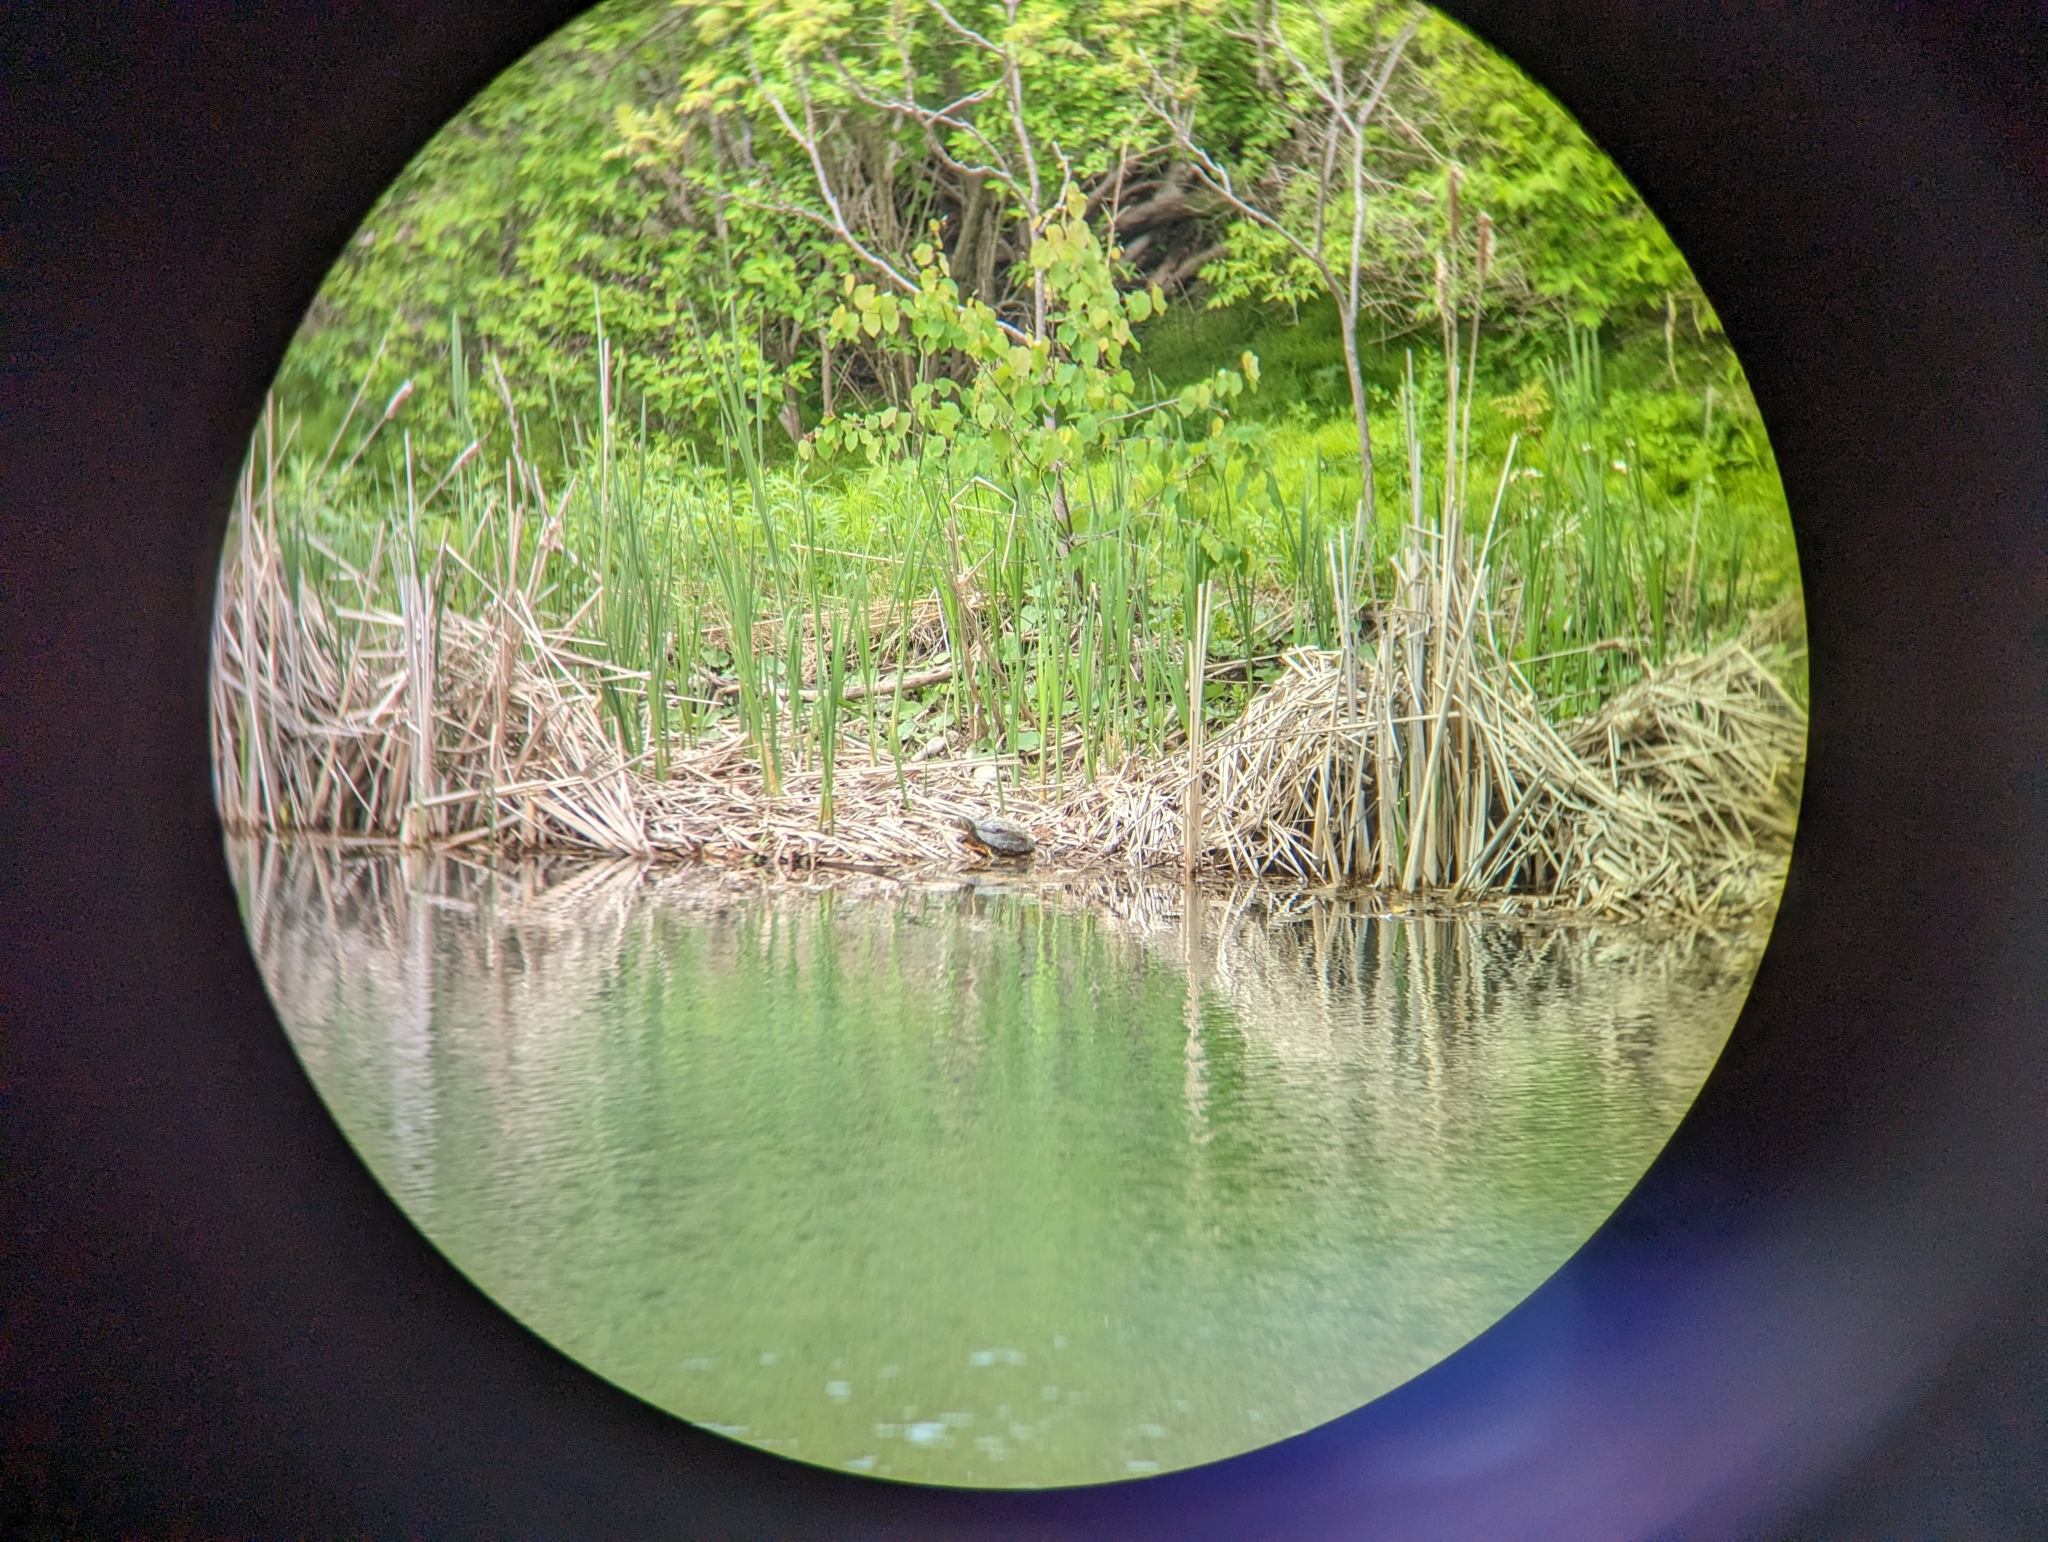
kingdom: Animalia
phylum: Chordata
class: Testudines
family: Emydidae
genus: Trachemys
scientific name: Trachemys scripta
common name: Slider
